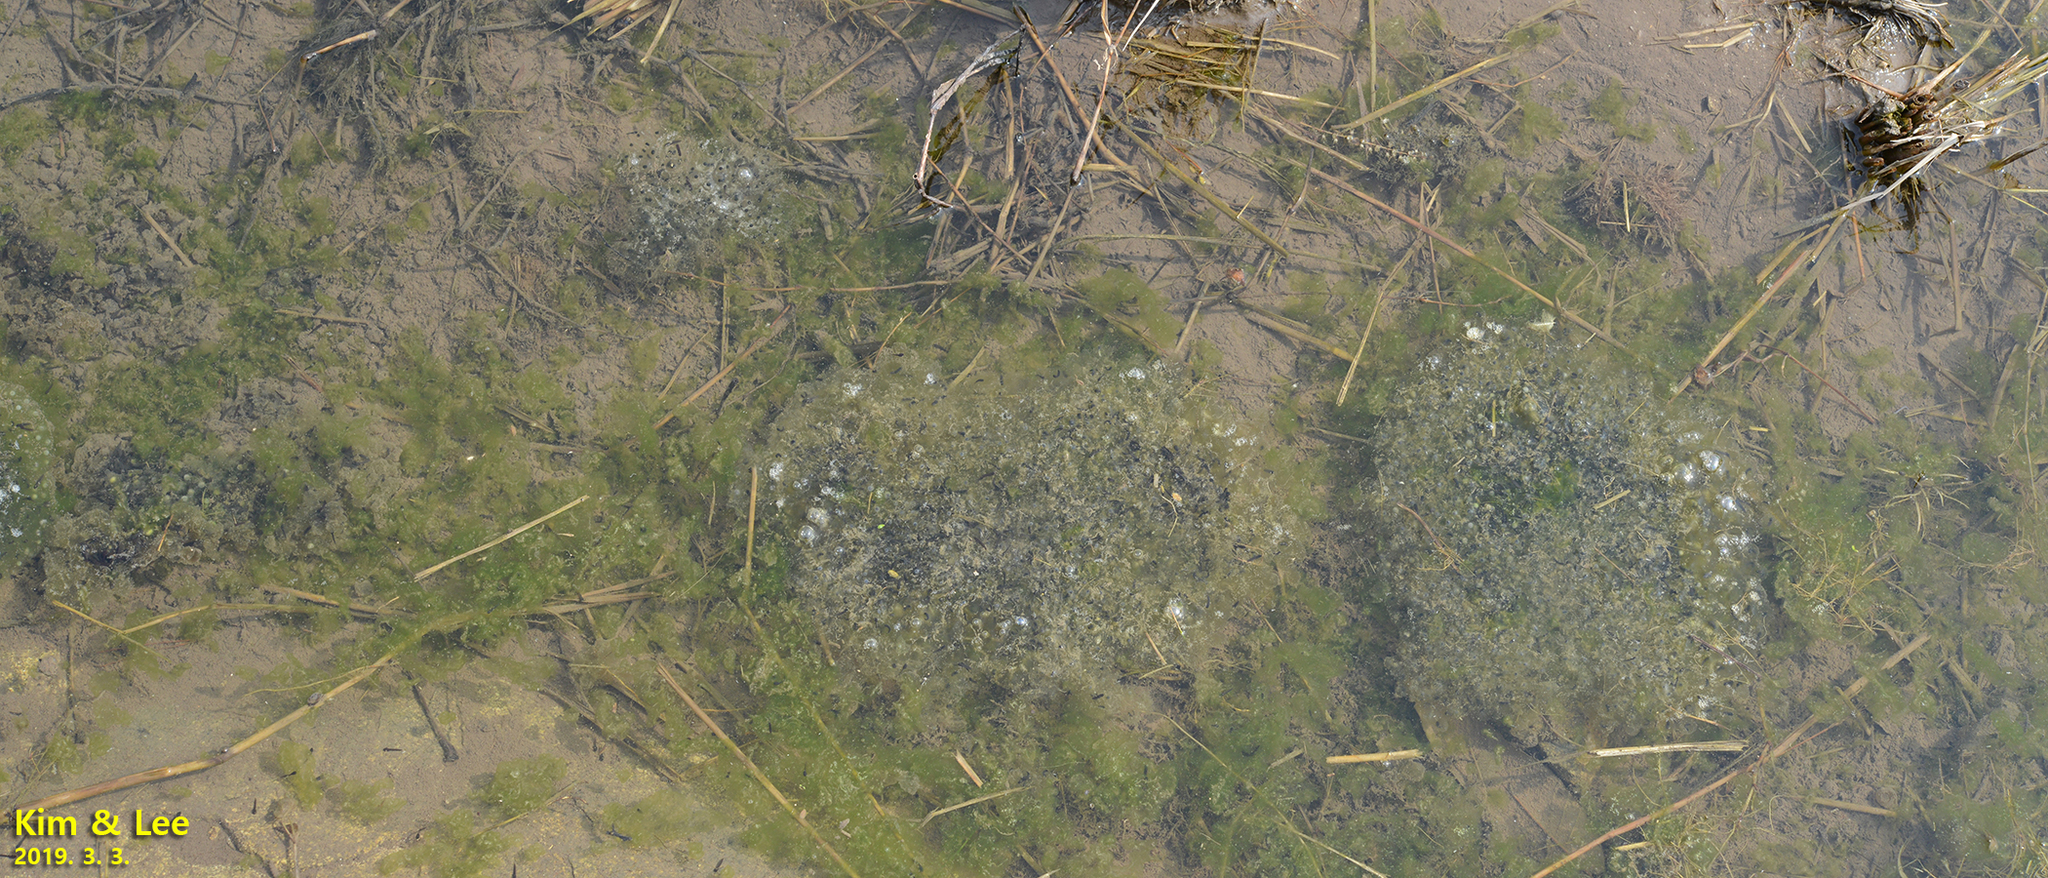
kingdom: Animalia
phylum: Chordata
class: Amphibia
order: Anura
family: Ranidae
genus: Rana
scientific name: Rana uenoi
